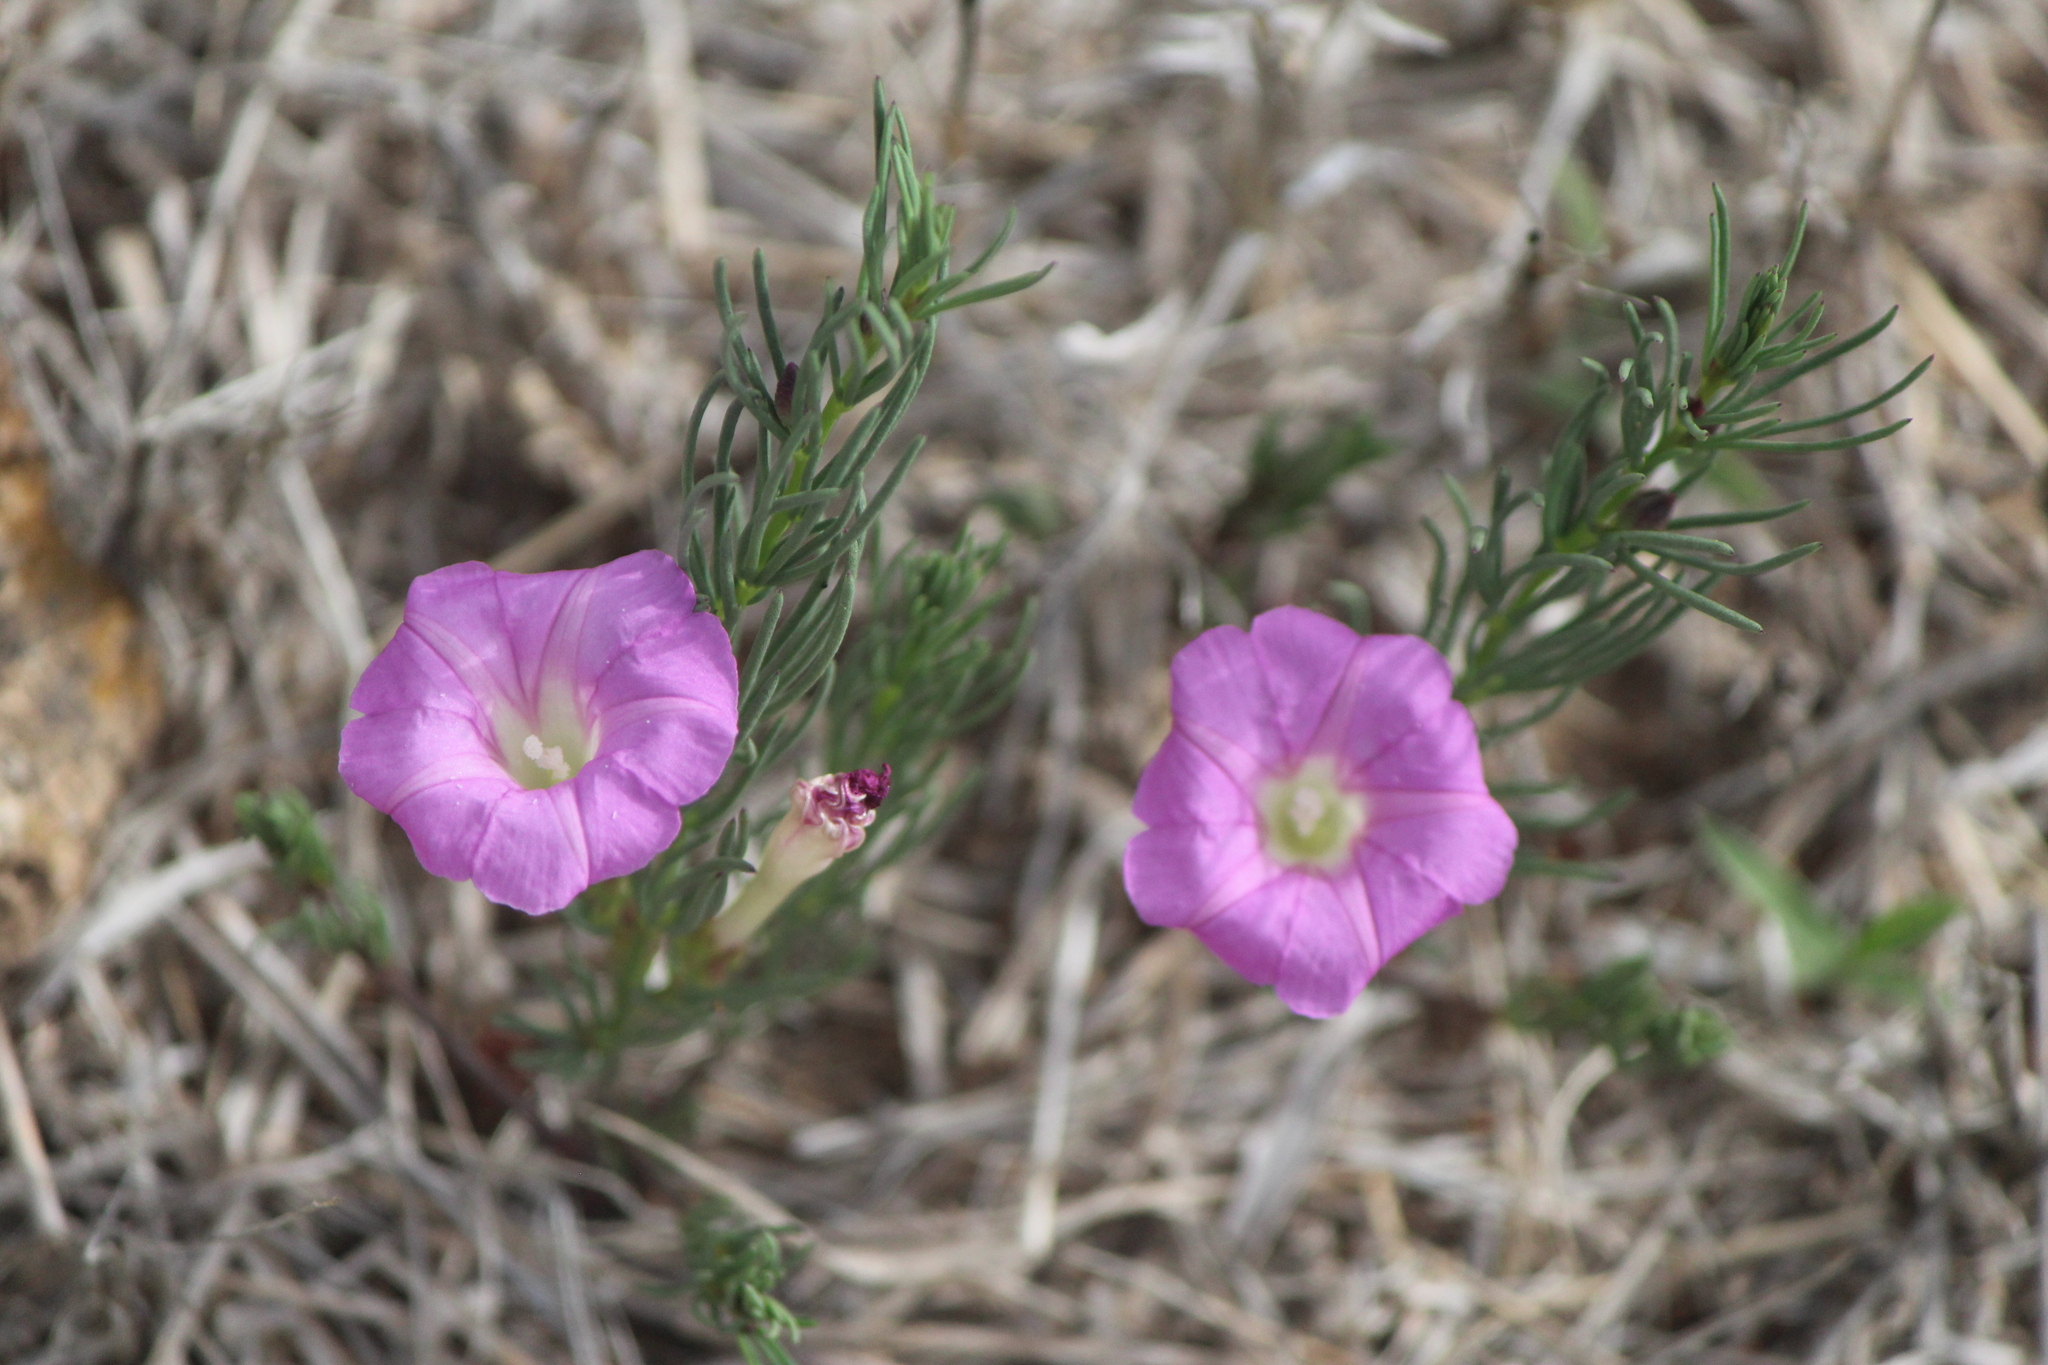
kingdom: Plantae
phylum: Tracheophyta
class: Magnoliopsida
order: Solanales
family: Convolvulaceae
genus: Ipomoea
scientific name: Ipomoea capillacea
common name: Purple morning-glory
